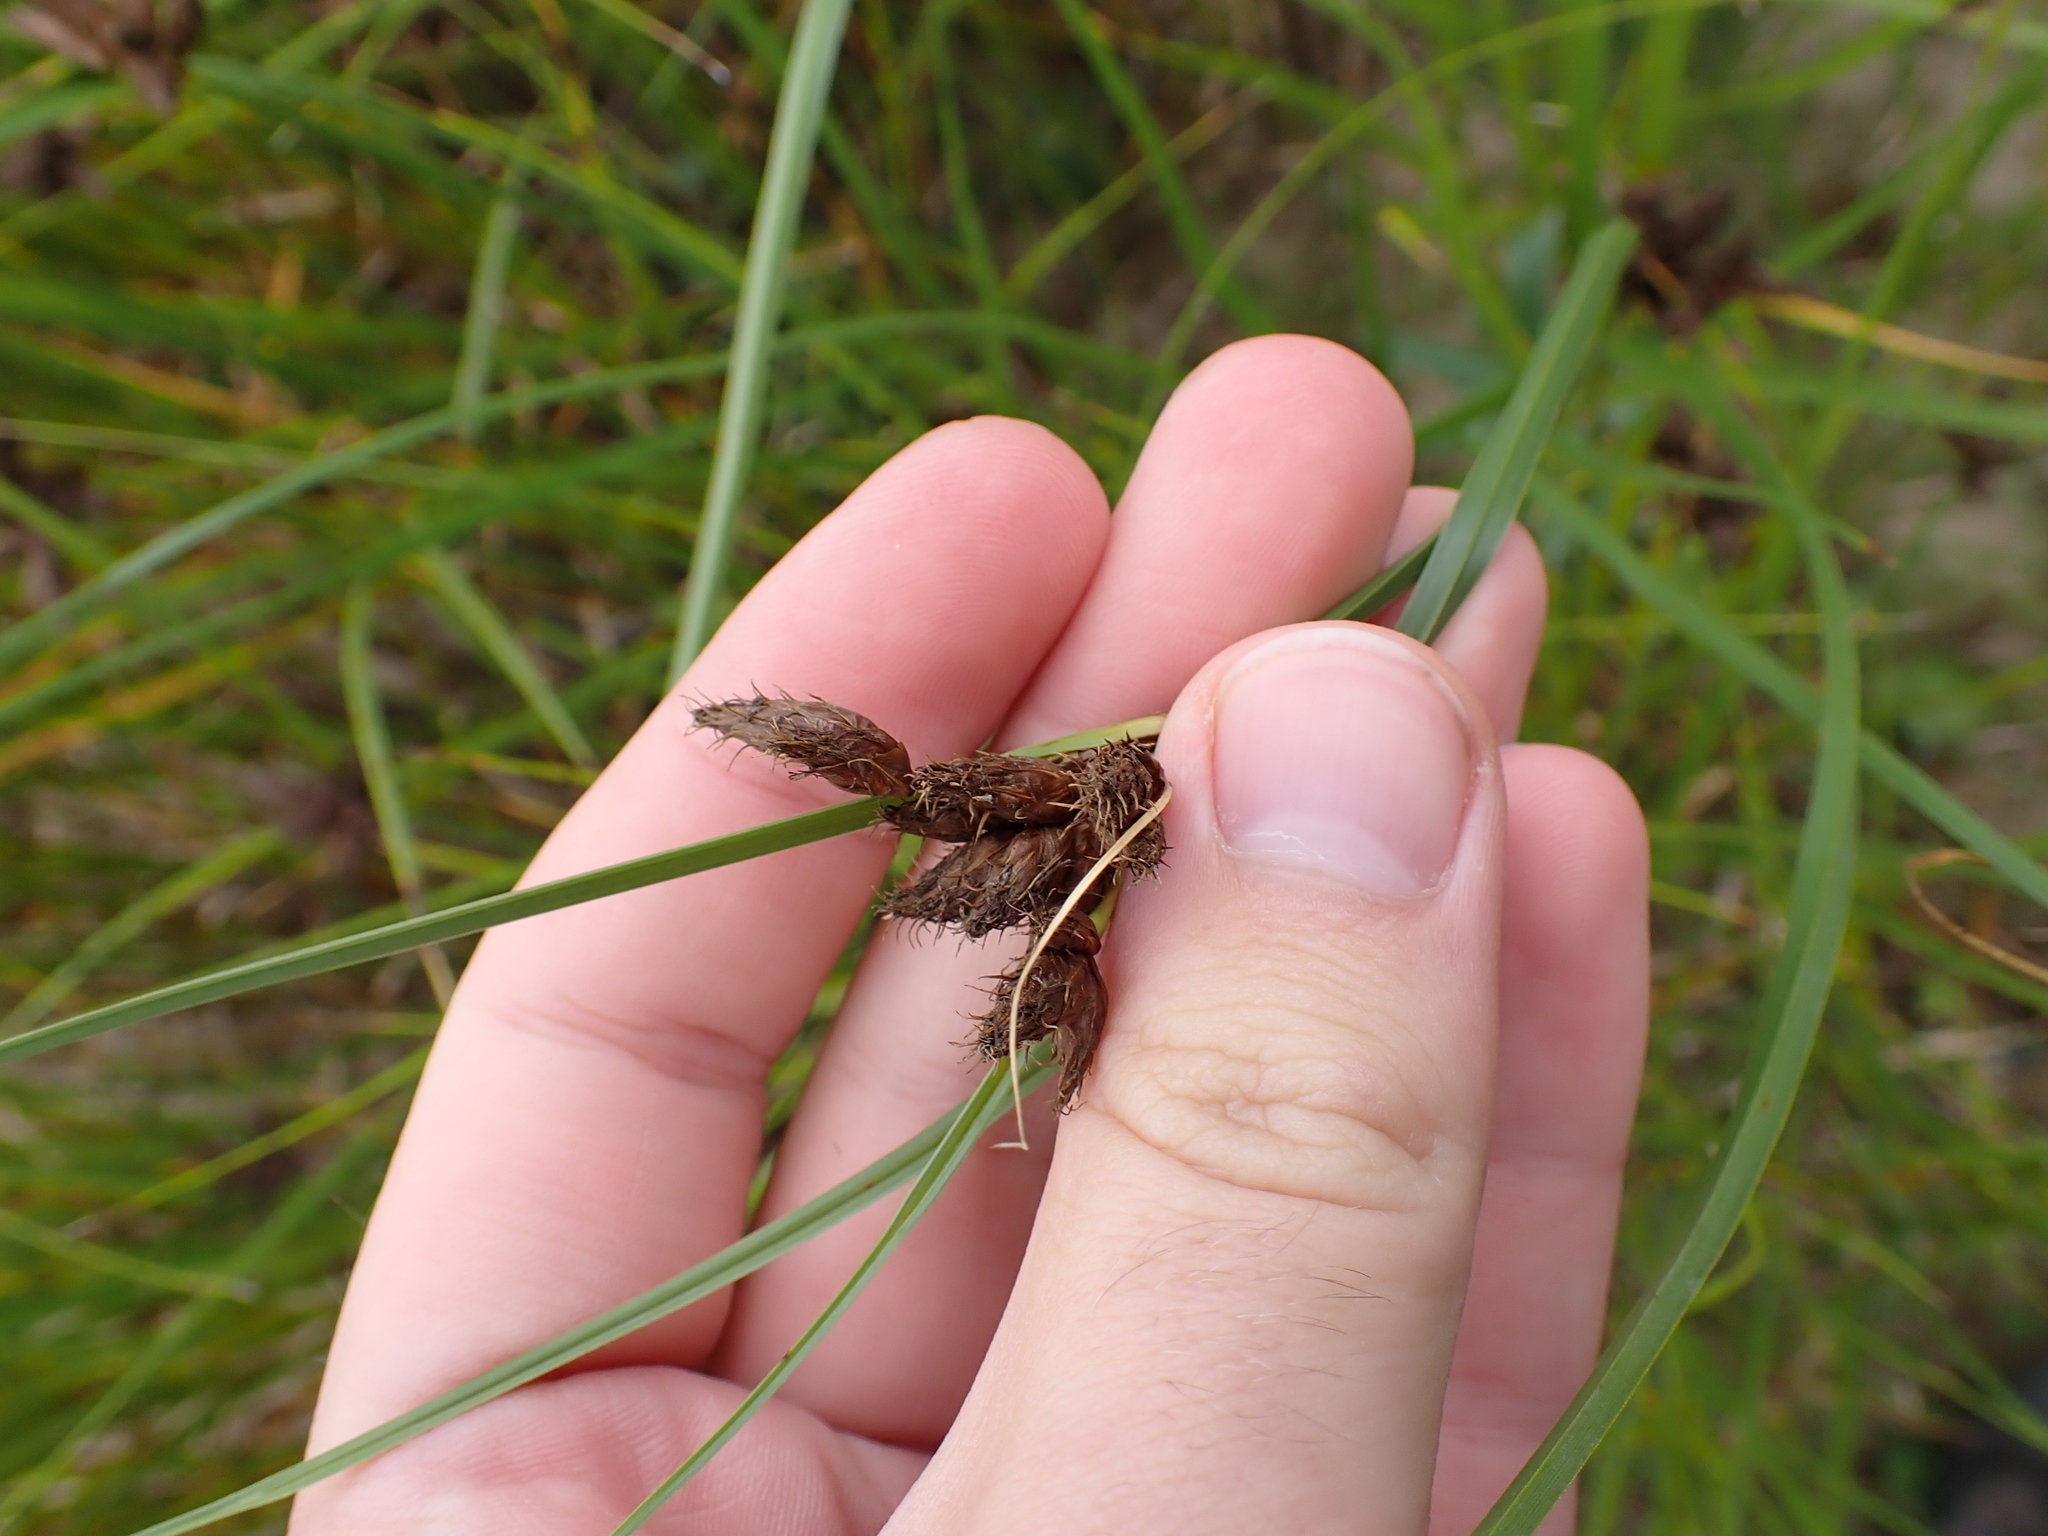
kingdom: Plantae
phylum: Tracheophyta
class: Liliopsida
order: Poales
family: Cyperaceae
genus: Bolboschoenus
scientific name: Bolboschoenus maritimus
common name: Sea club-rush
